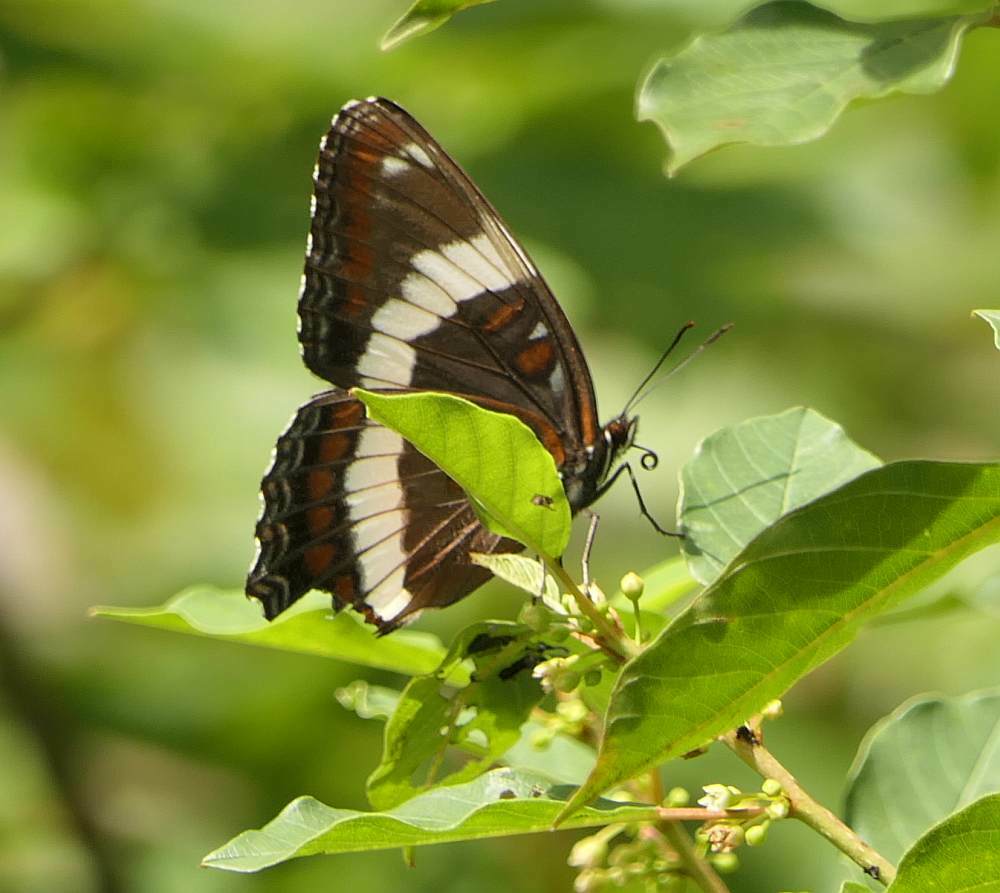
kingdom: Animalia
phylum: Arthropoda
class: Insecta
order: Lepidoptera
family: Nymphalidae
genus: Limenitis
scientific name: Limenitis arthemis
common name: Red-spotted admiral
